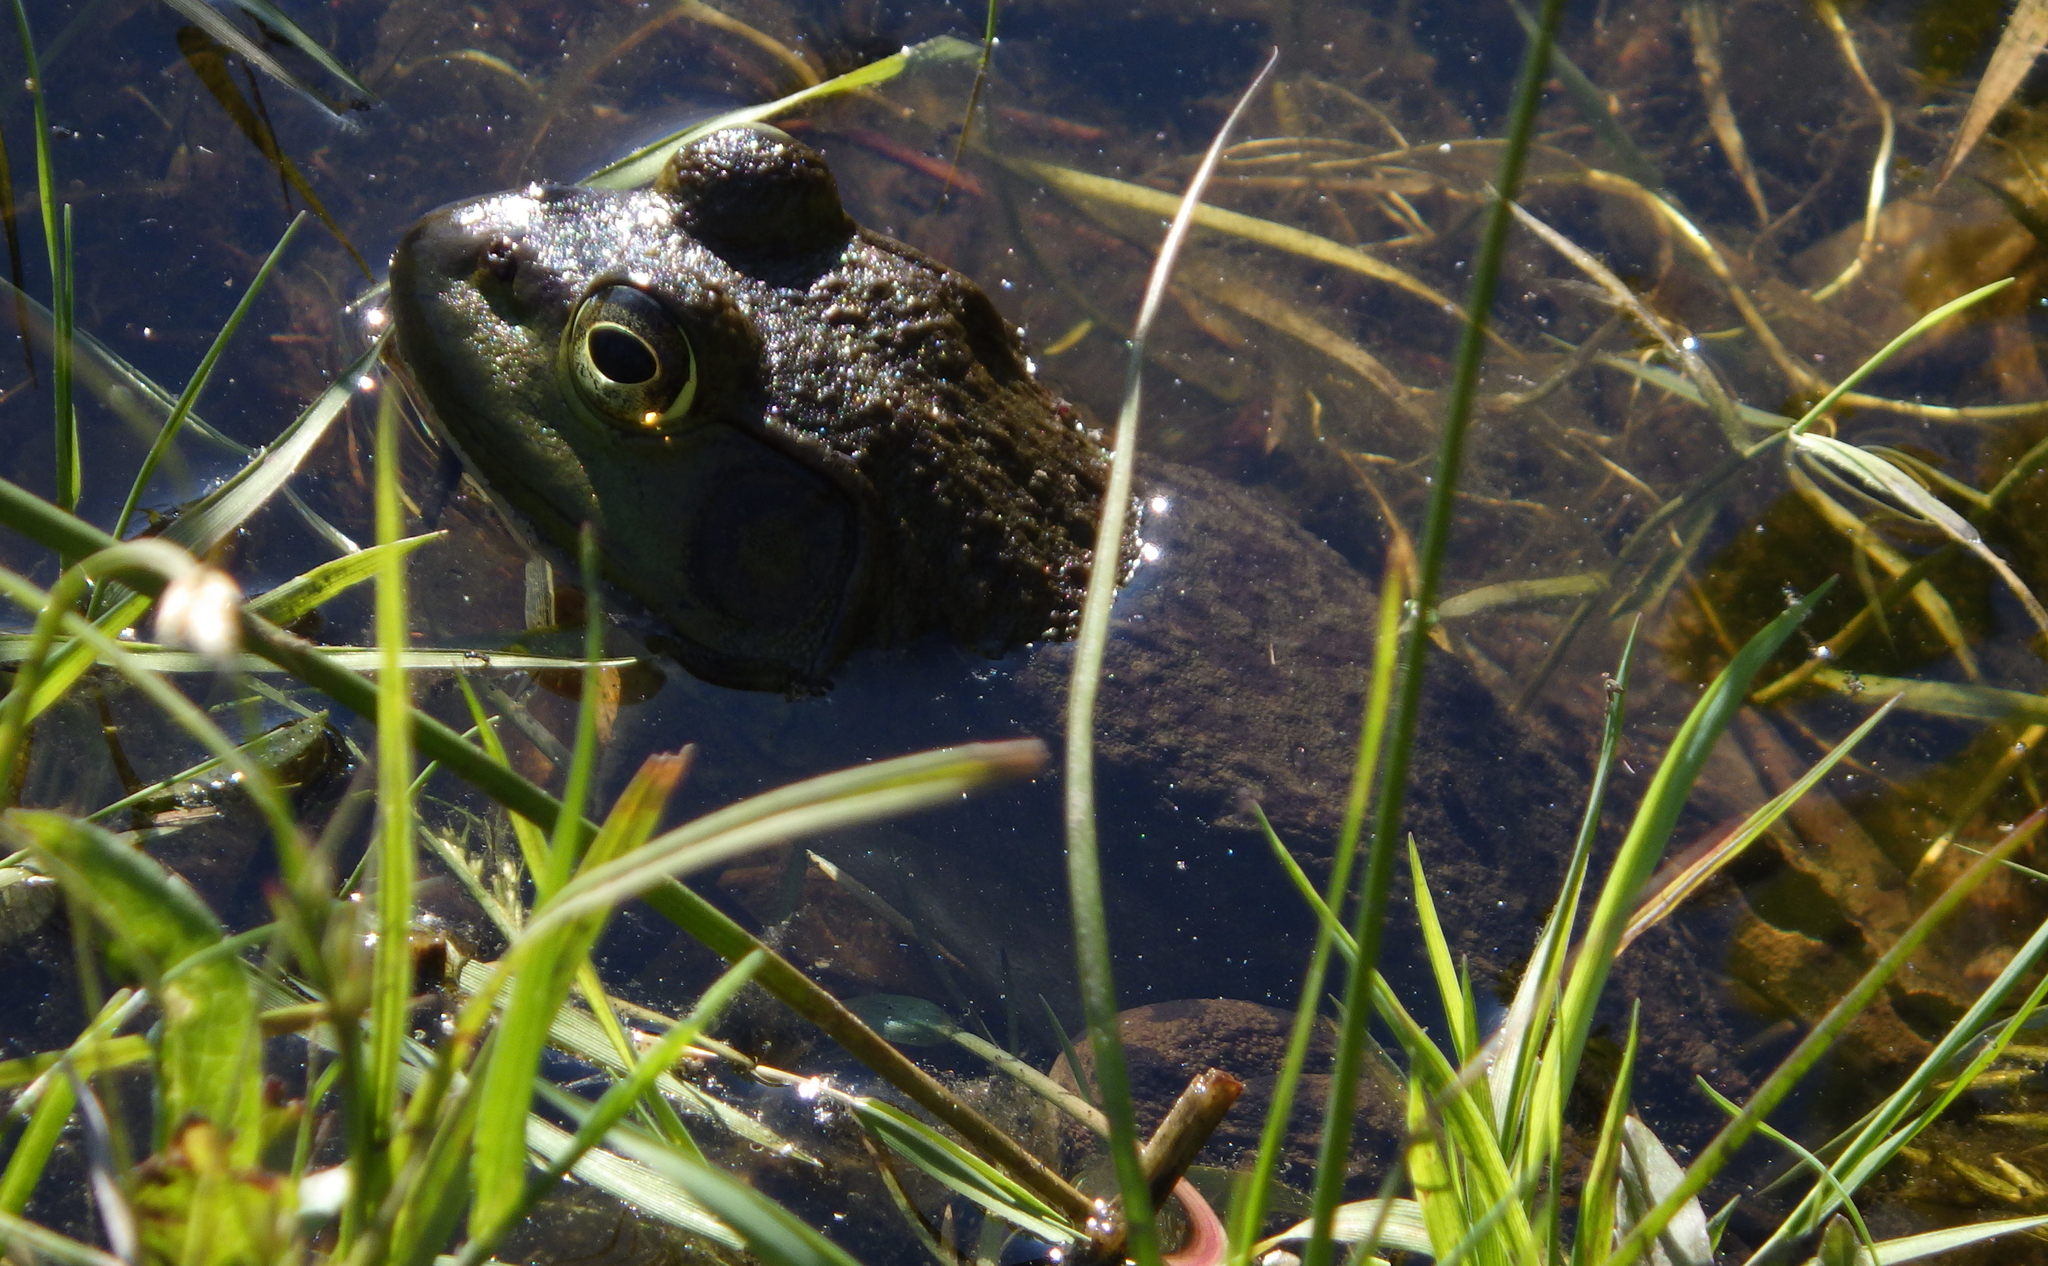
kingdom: Animalia
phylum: Chordata
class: Amphibia
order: Anura
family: Ranidae
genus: Lithobates
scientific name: Lithobates catesbeianus
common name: American bullfrog
